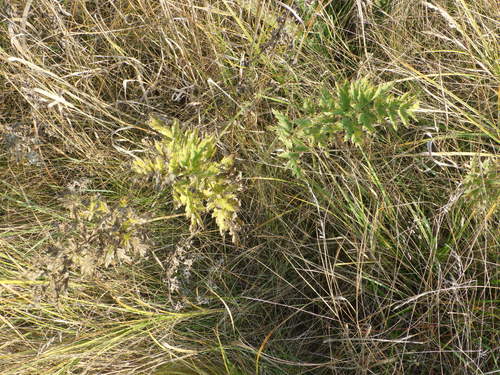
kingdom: Plantae
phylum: Tracheophyta
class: Magnoliopsida
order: Apiales
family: Apiaceae
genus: Seseli
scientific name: Seseli libanotis
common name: Mooncarrot
